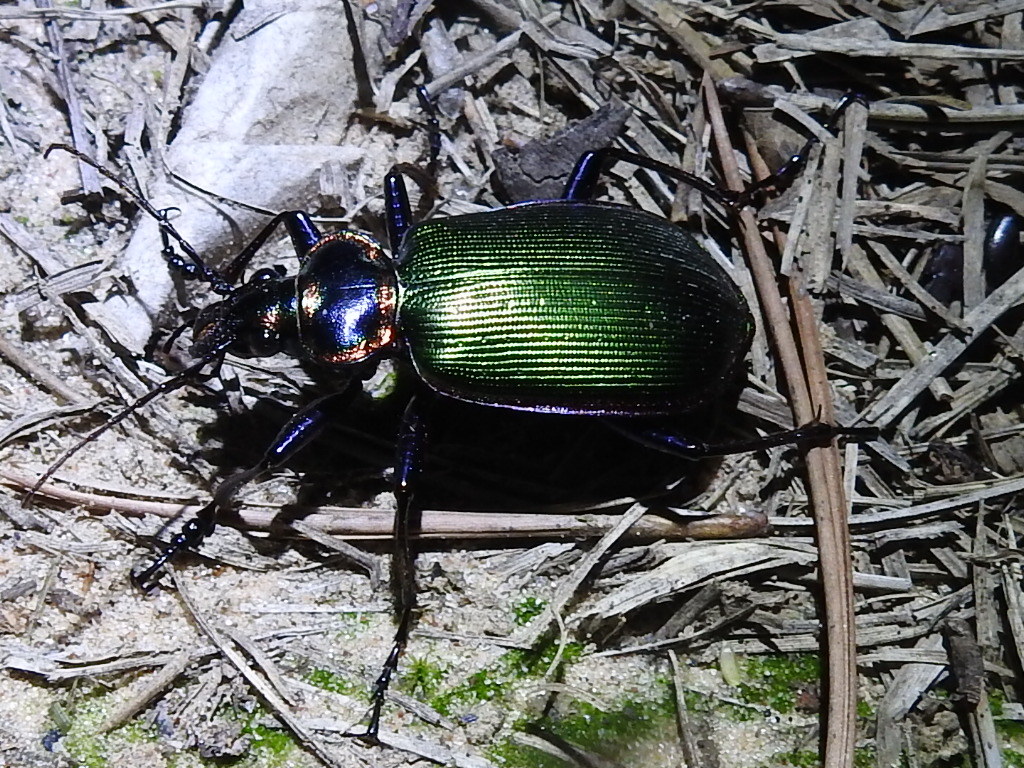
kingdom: Animalia
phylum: Arthropoda
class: Insecta
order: Coleoptera
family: Carabidae
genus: Calosoma
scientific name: Calosoma scrutator
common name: Fiery searcher beetle
